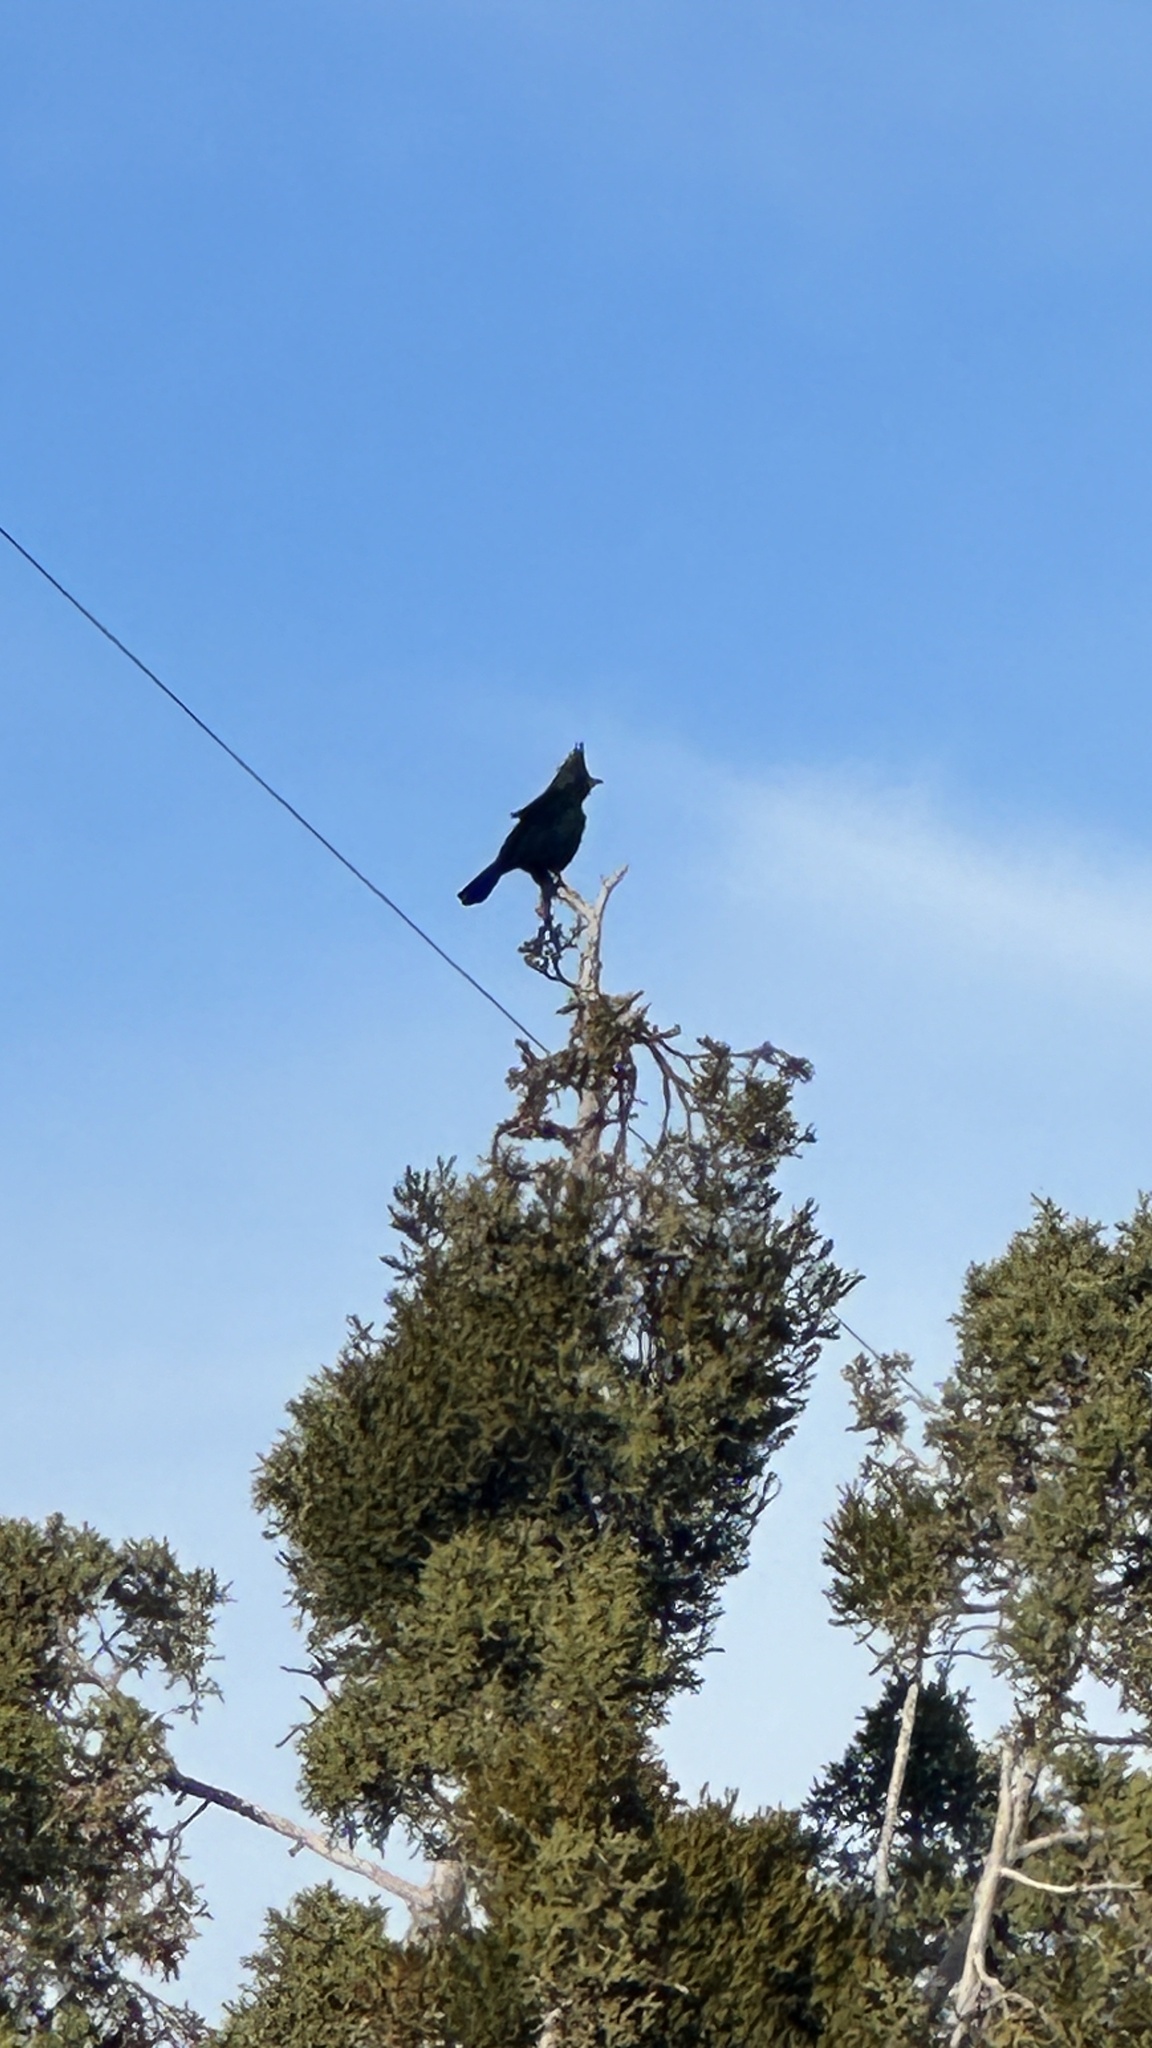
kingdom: Animalia
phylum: Chordata
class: Aves
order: Passeriformes
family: Ptilogonatidae
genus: Phainopepla
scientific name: Phainopepla nitens
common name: Phainopepla
